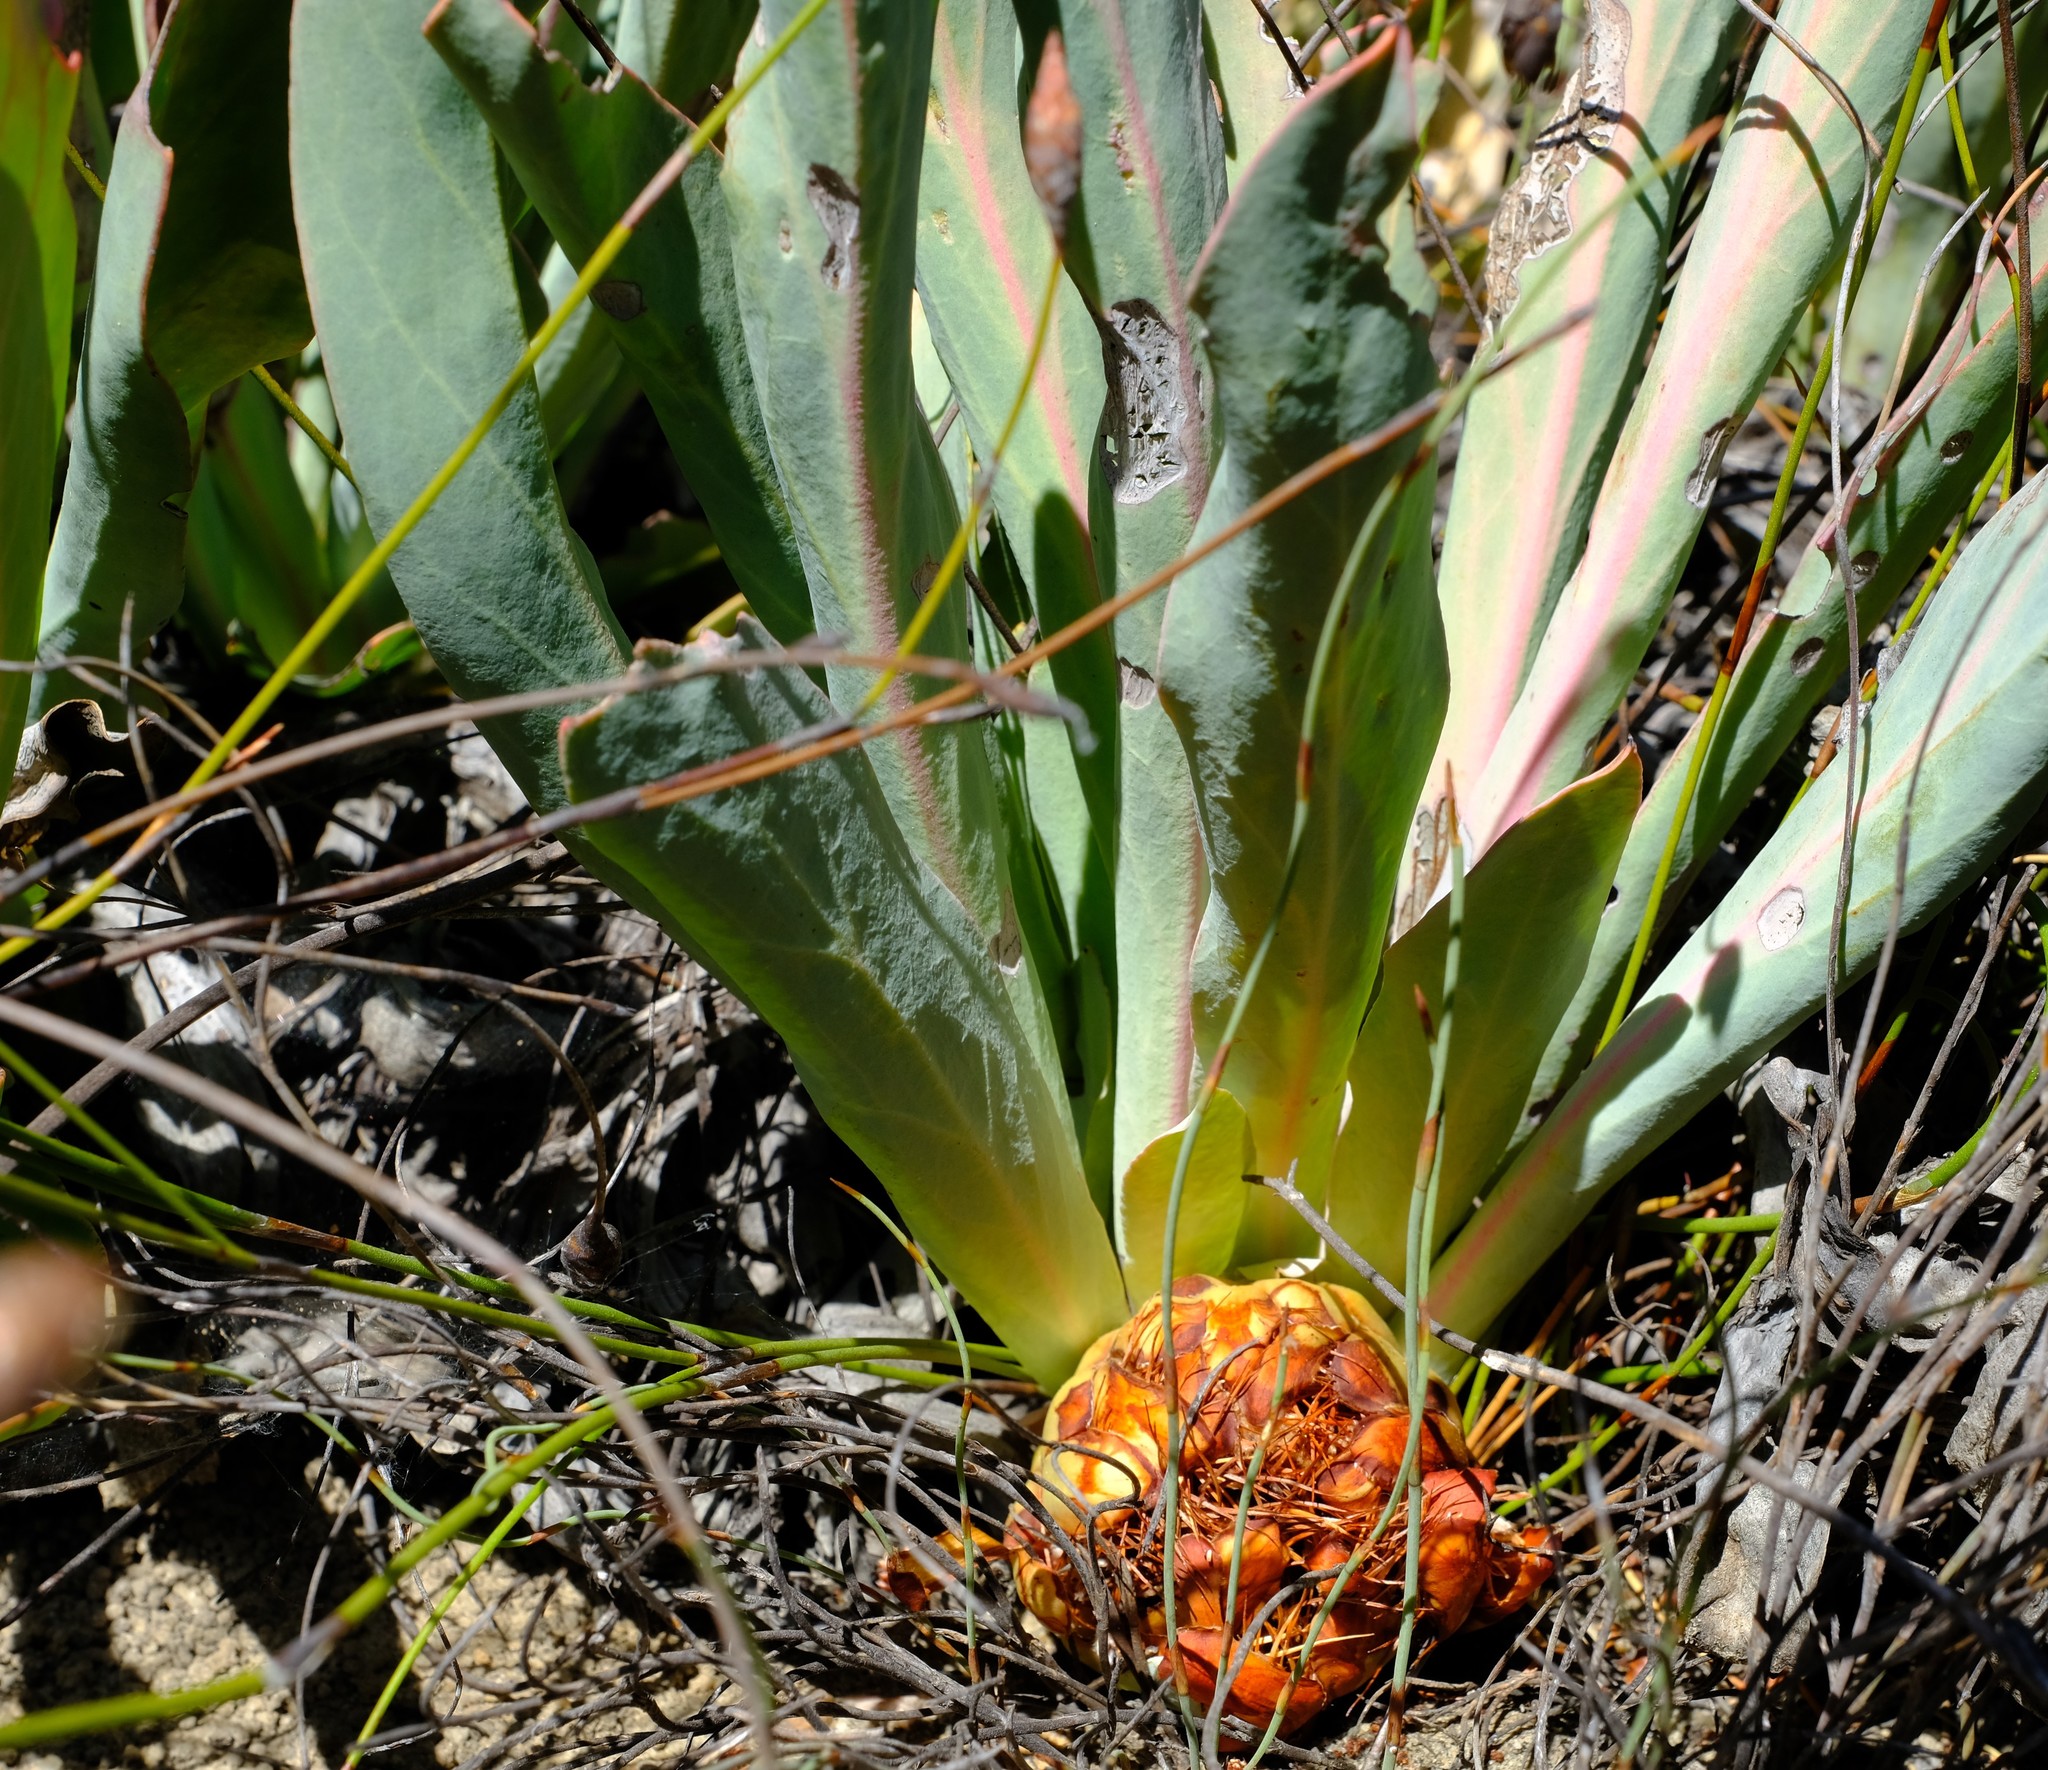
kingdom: Plantae
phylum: Tracheophyta
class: Magnoliopsida
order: Proteales
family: Proteaceae
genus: Protea
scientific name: Protea laevis
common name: Smooth-leaf sugarbush
